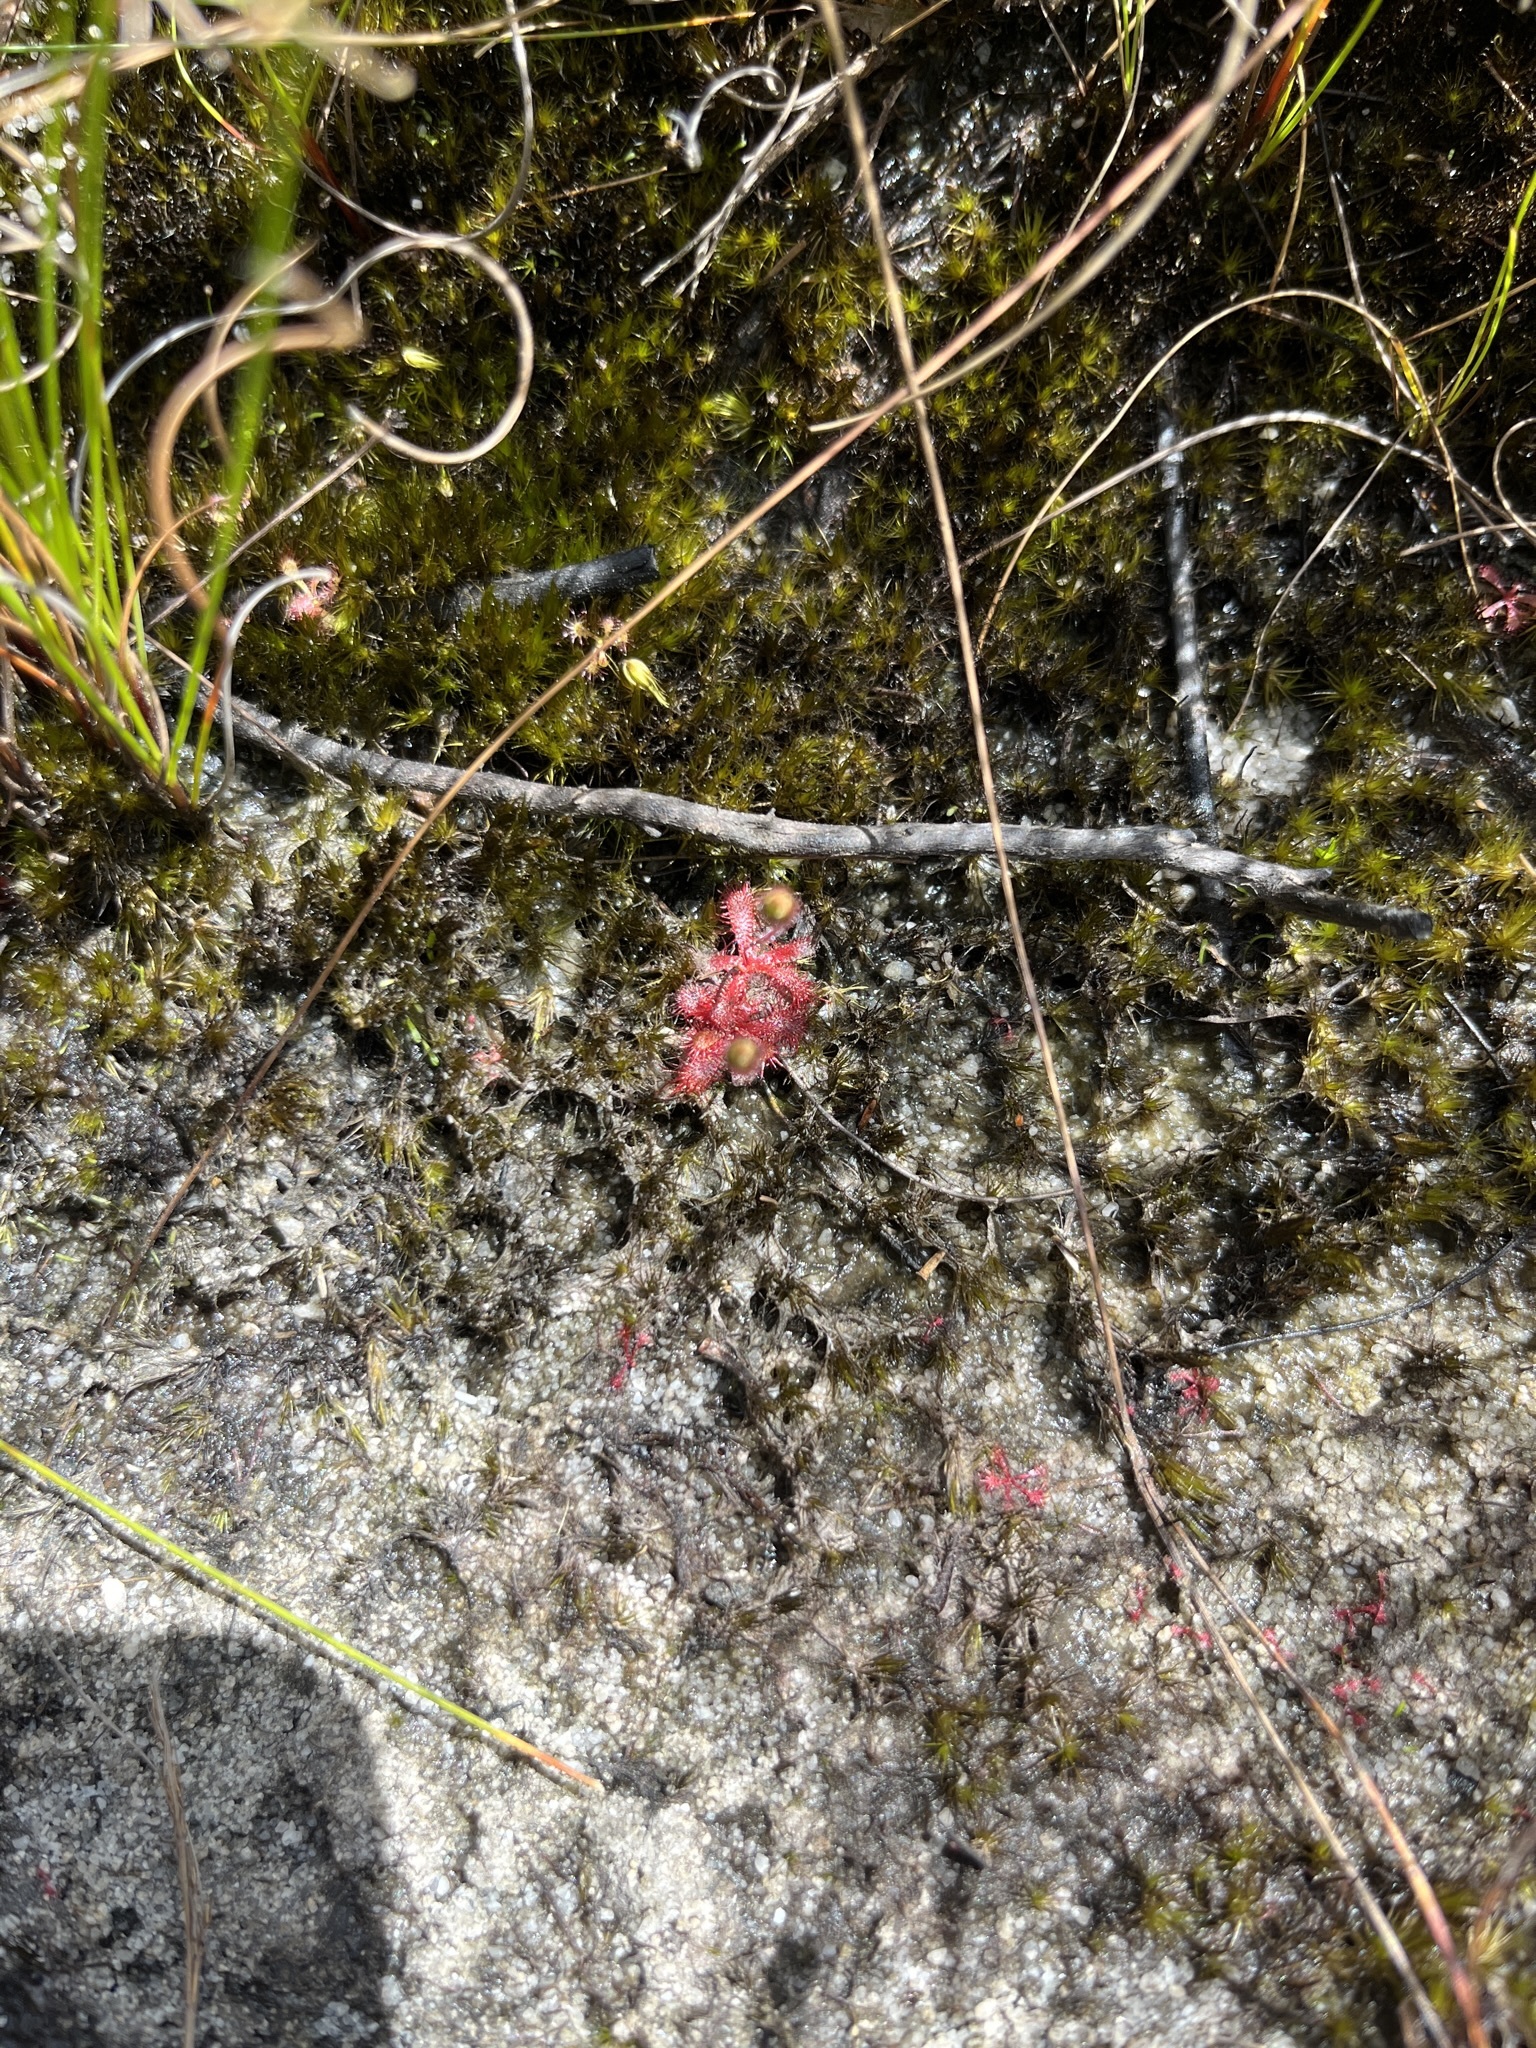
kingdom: Plantae
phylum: Tracheophyta
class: Magnoliopsida
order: Caryophyllales
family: Droseraceae
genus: Drosera
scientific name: Drosera trinervia
